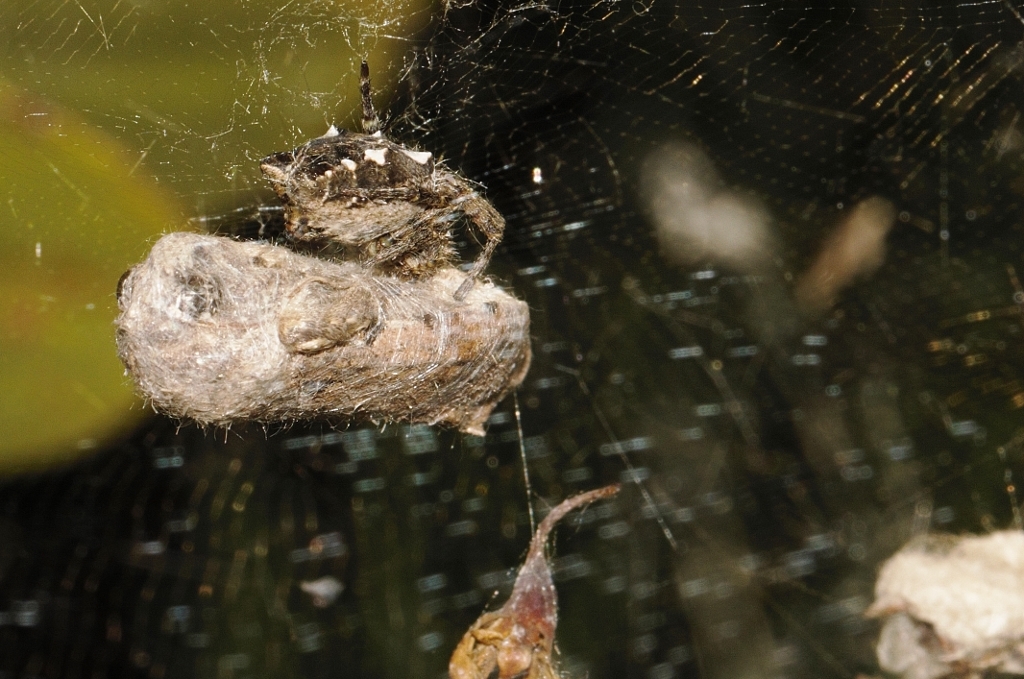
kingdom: Animalia
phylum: Arthropoda
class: Arachnida
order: Araneae
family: Araneidae
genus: Cyrtophora
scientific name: Cyrtophora citricola
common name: Orb weavers
